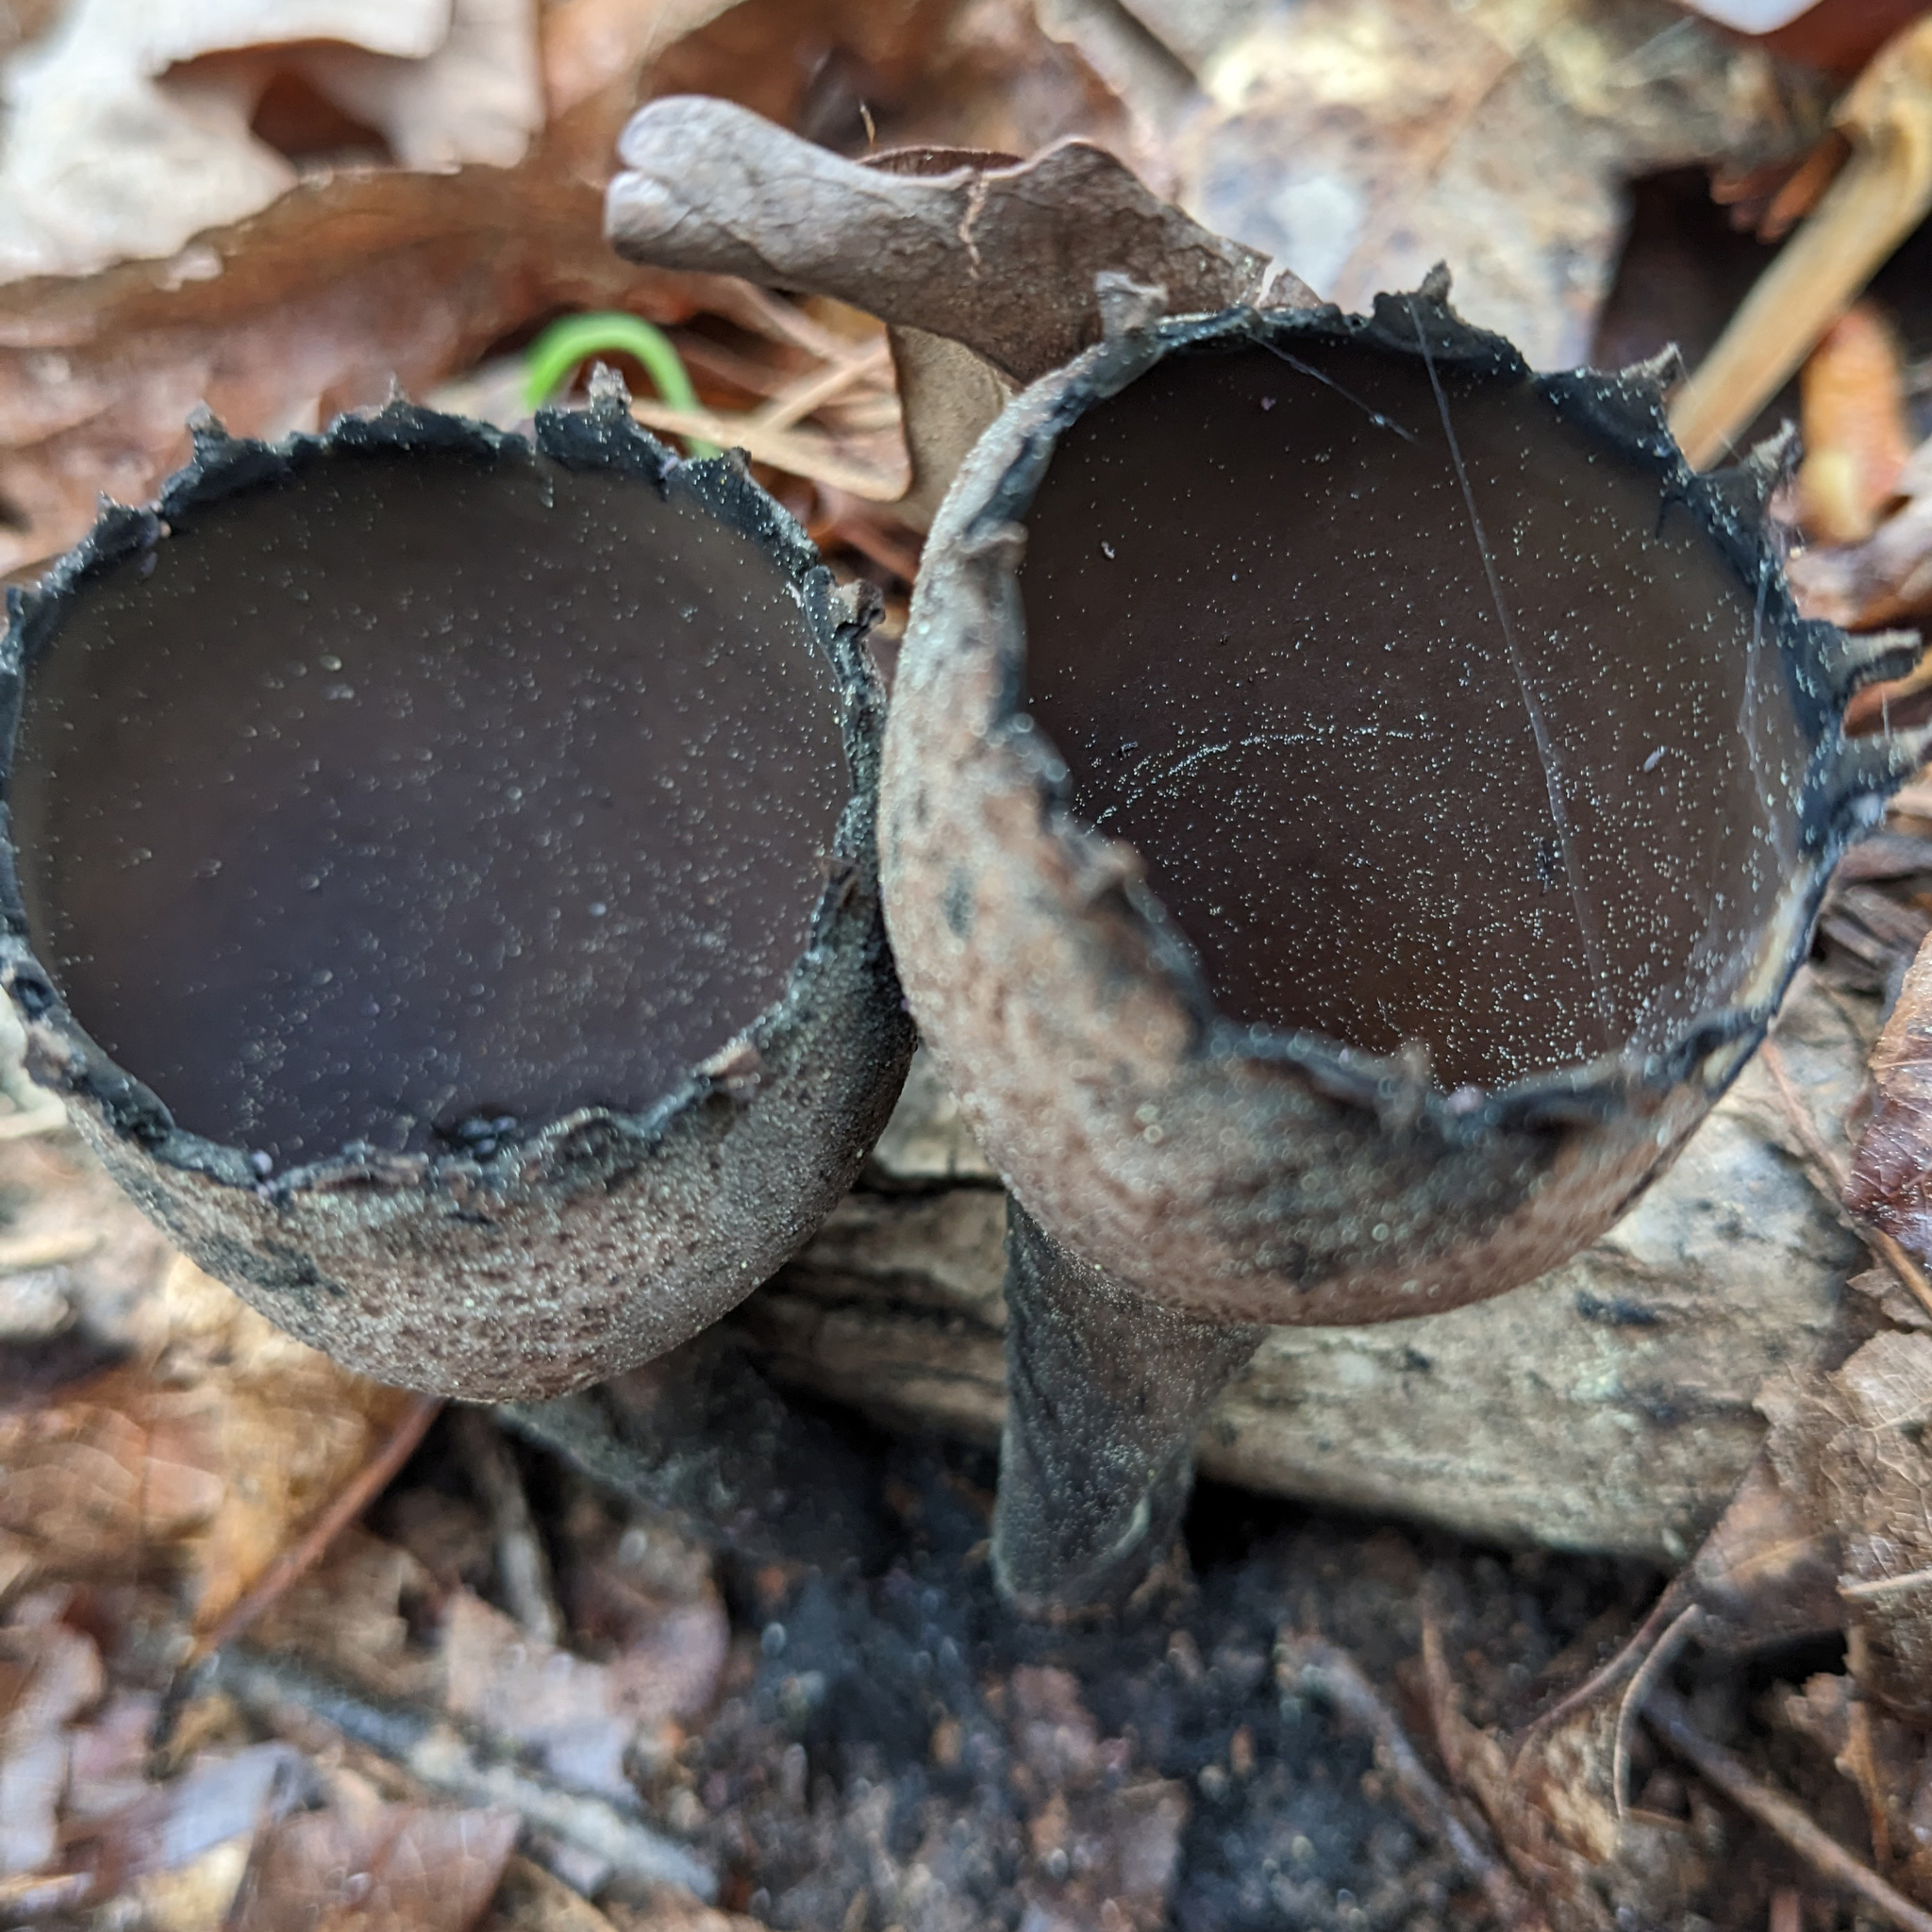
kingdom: Fungi
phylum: Ascomycota
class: Pezizomycetes
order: Pezizales
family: Sarcosomataceae
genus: Urnula
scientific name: Urnula craterium
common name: Devil's urn
